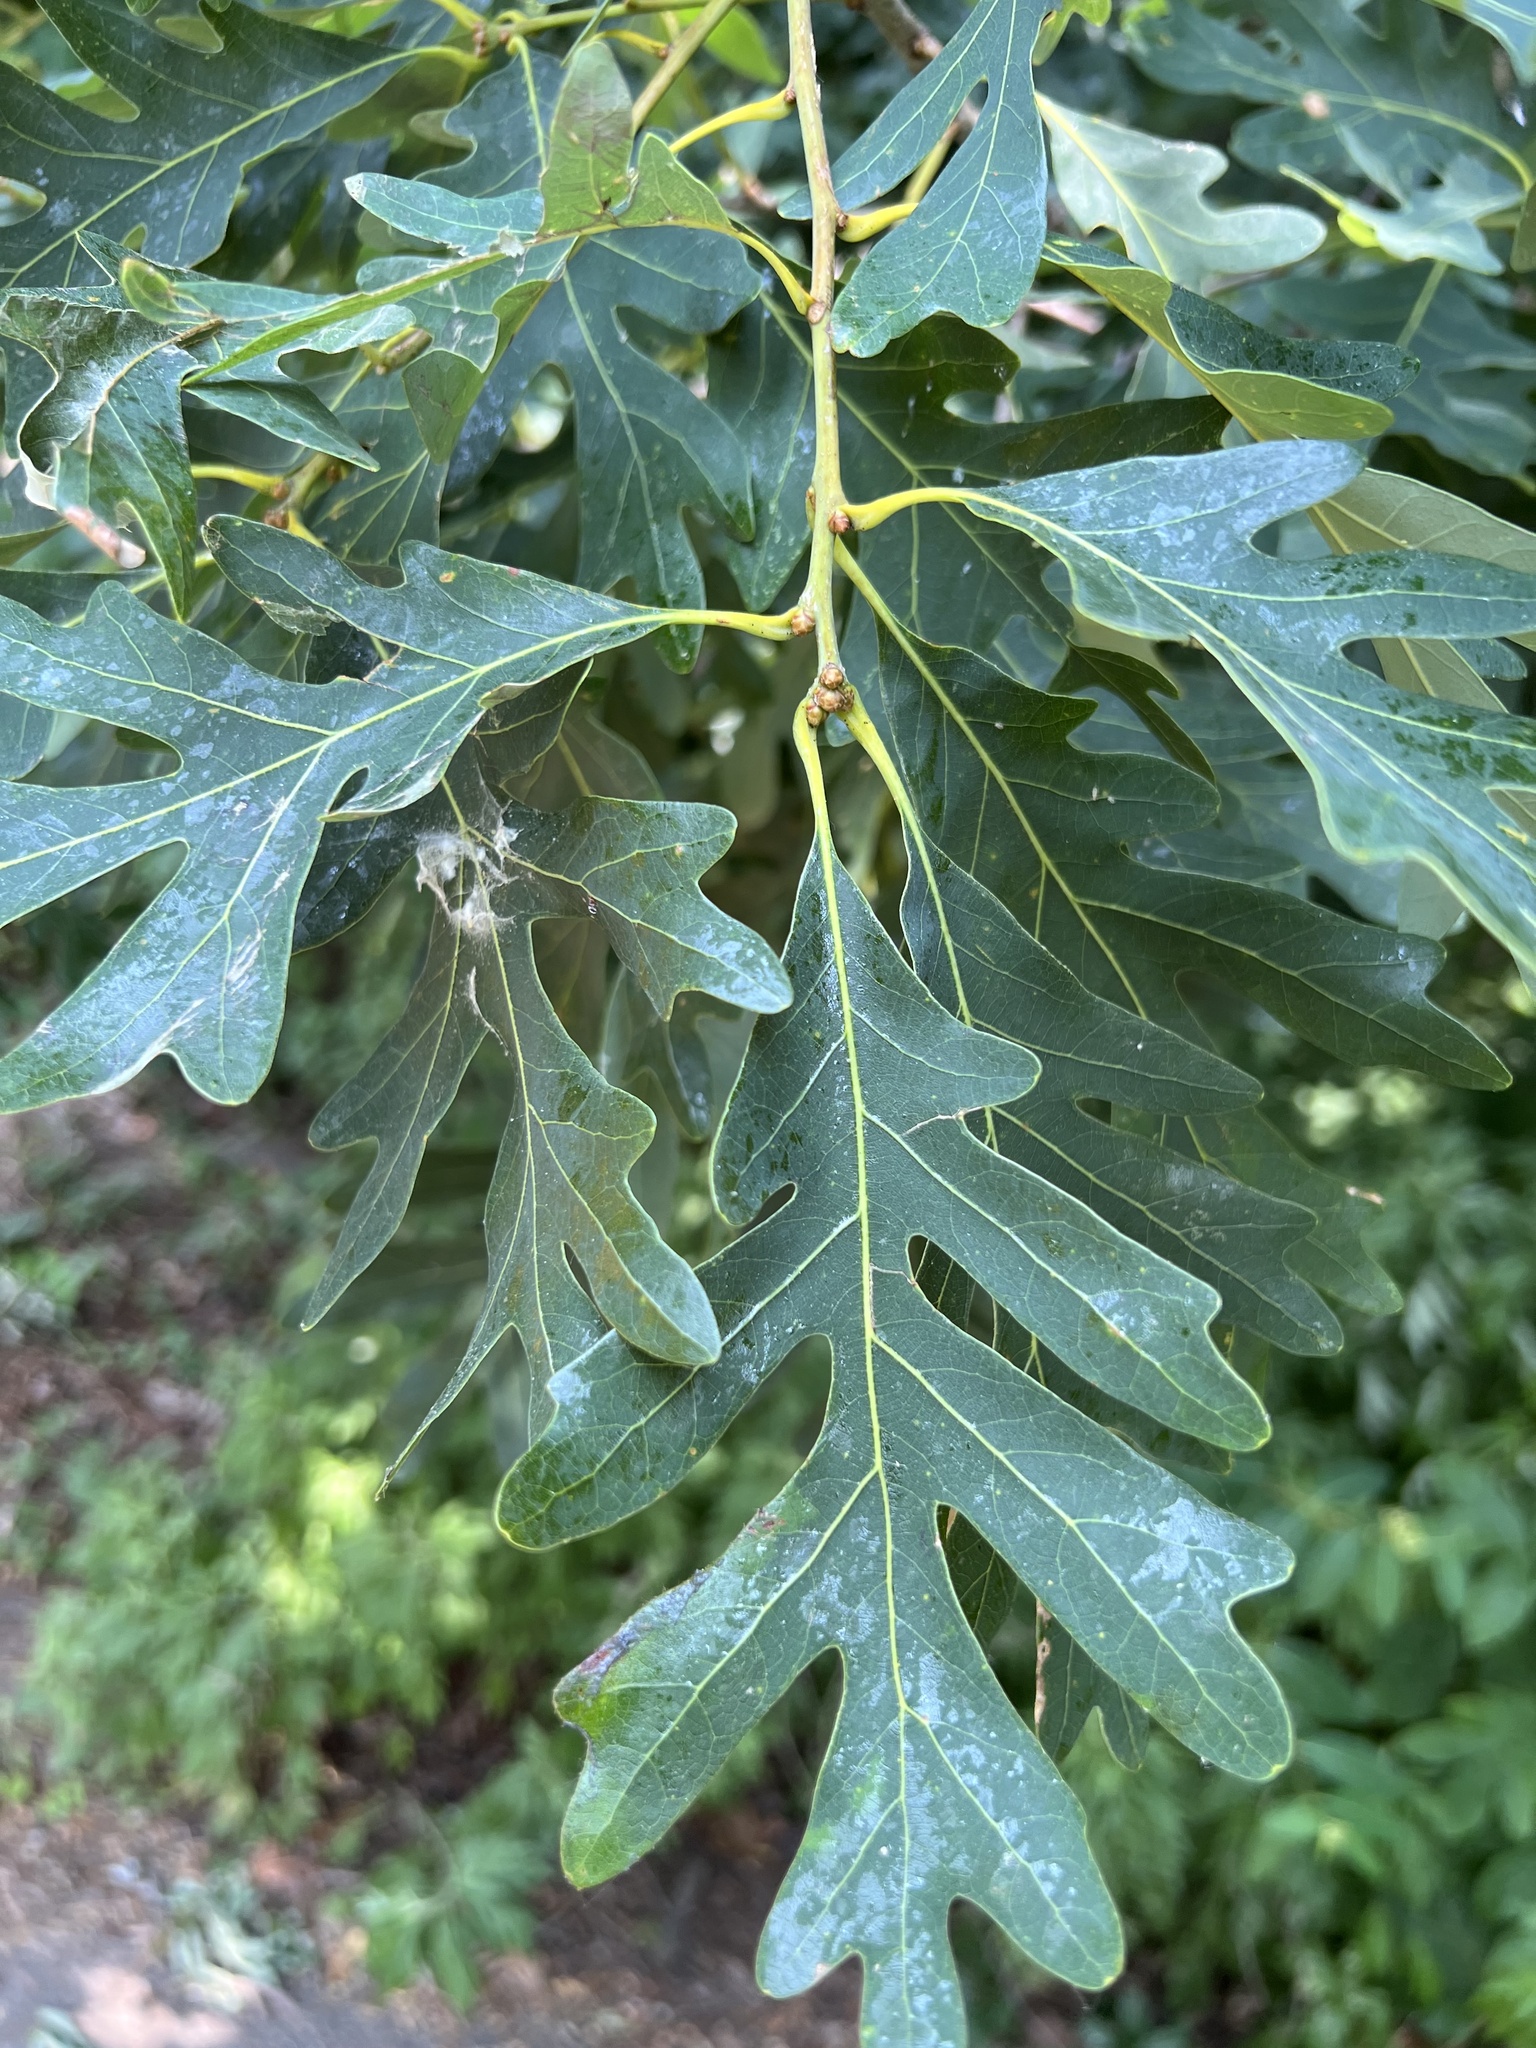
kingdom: Plantae
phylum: Tracheophyta
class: Magnoliopsida
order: Fagales
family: Fagaceae
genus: Quercus
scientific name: Quercus alba
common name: White oak
